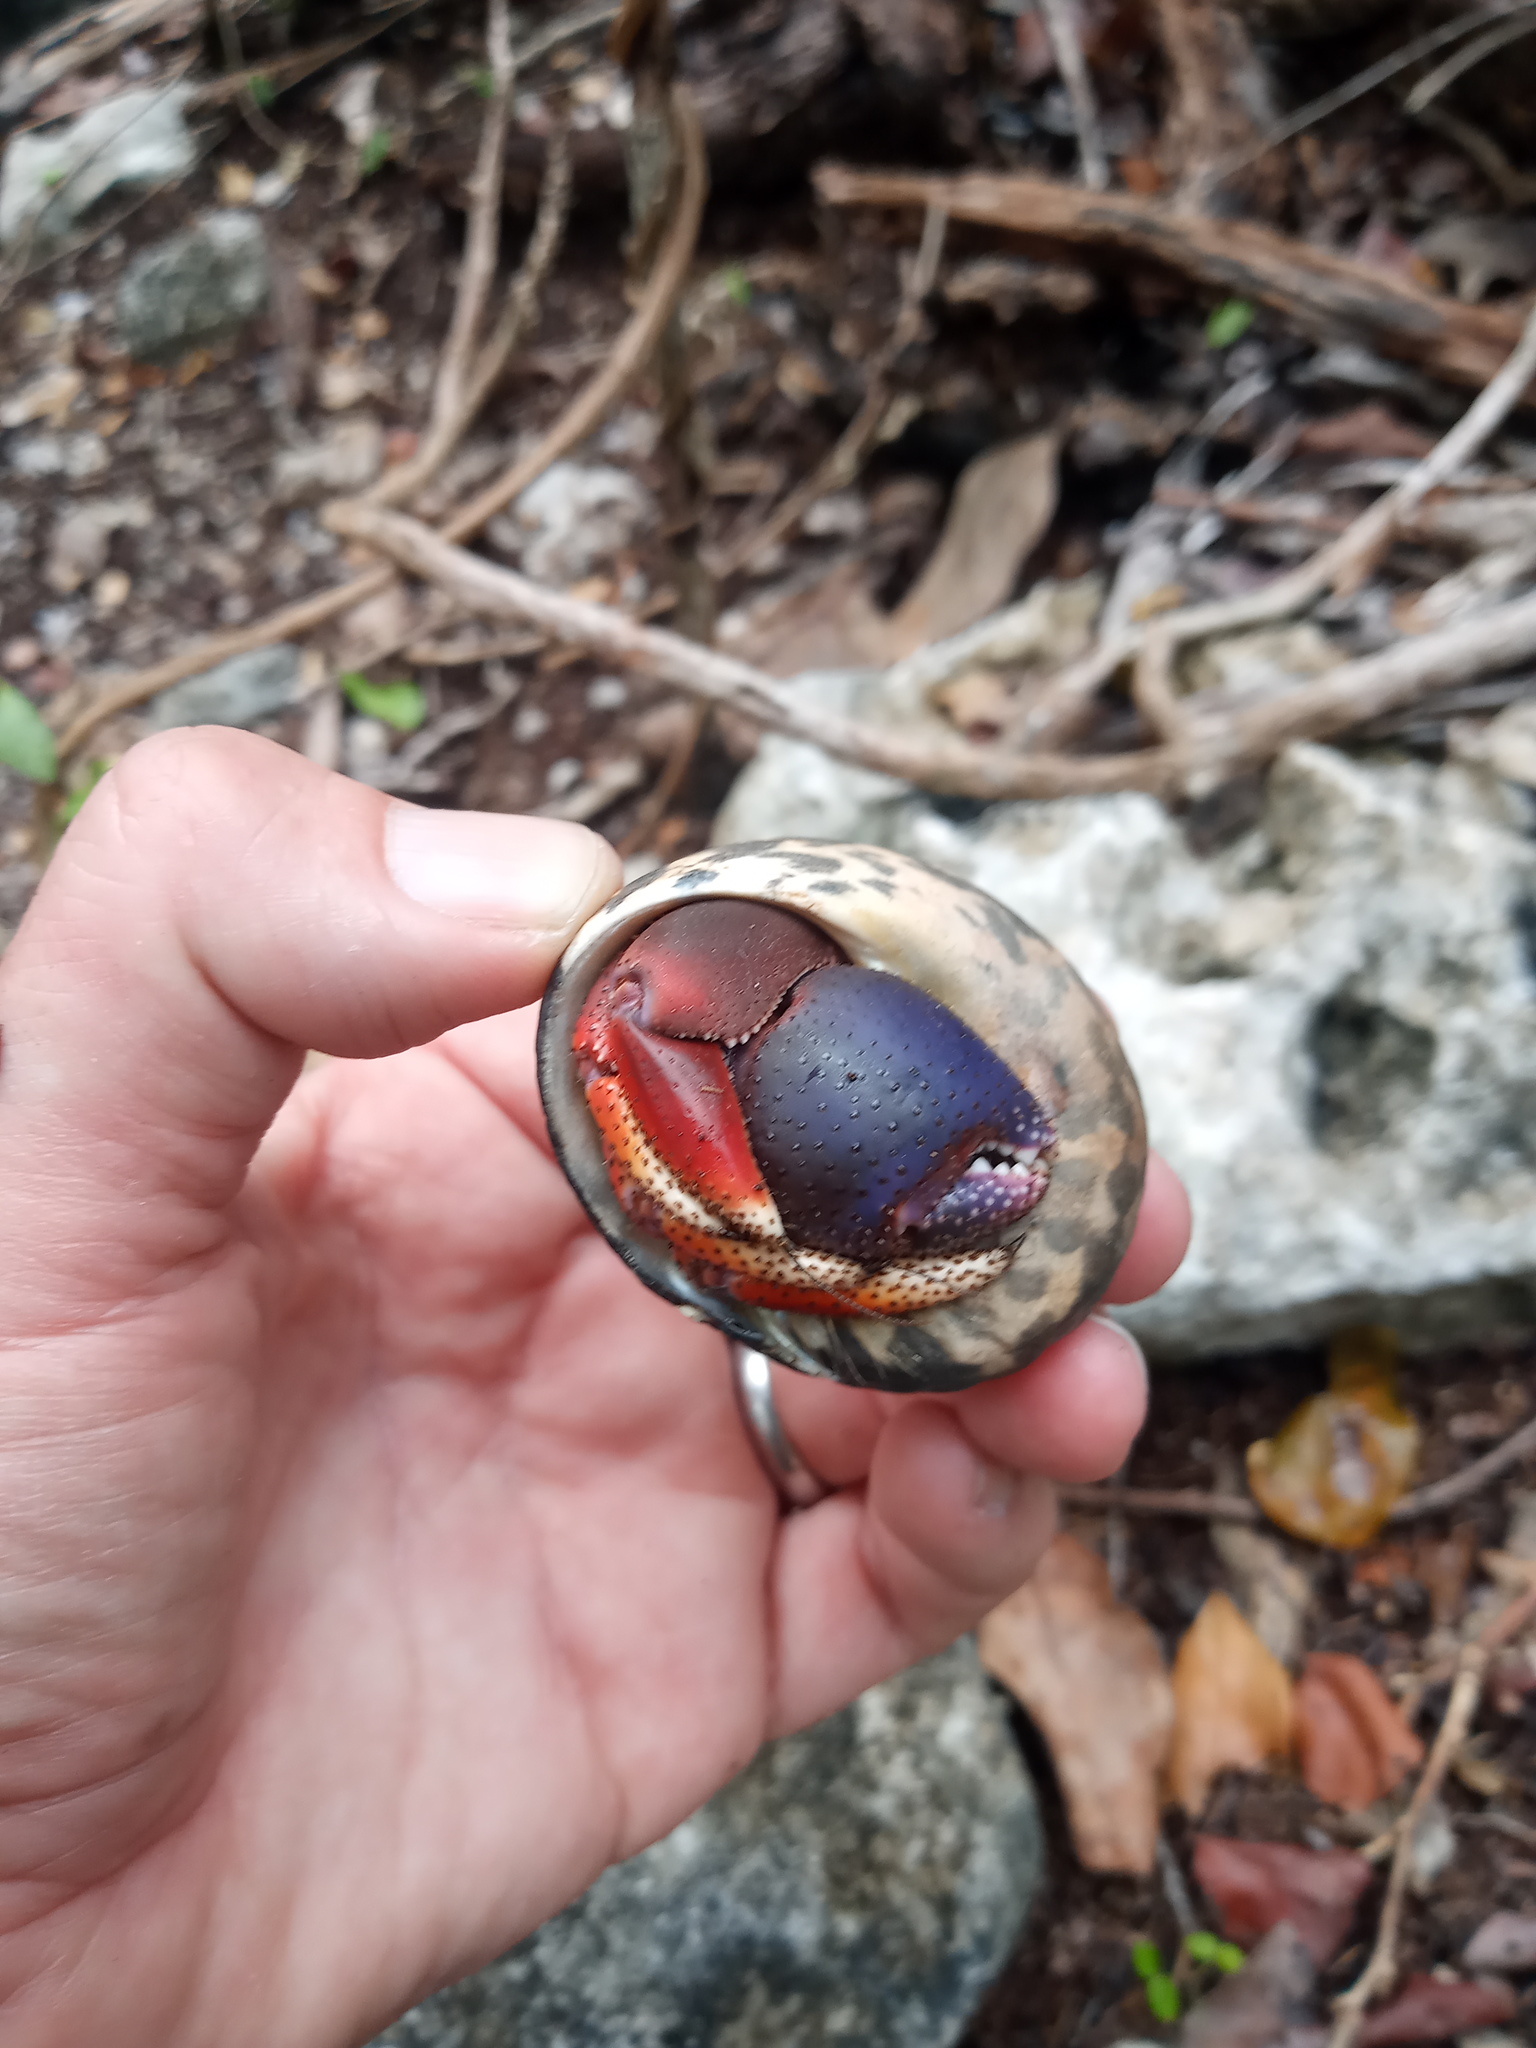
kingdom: Animalia
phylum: Arthropoda
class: Malacostraca
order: Decapoda
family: Coenobitidae
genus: Coenobita
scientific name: Coenobita clypeatus
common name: Caribbean hermit crab
